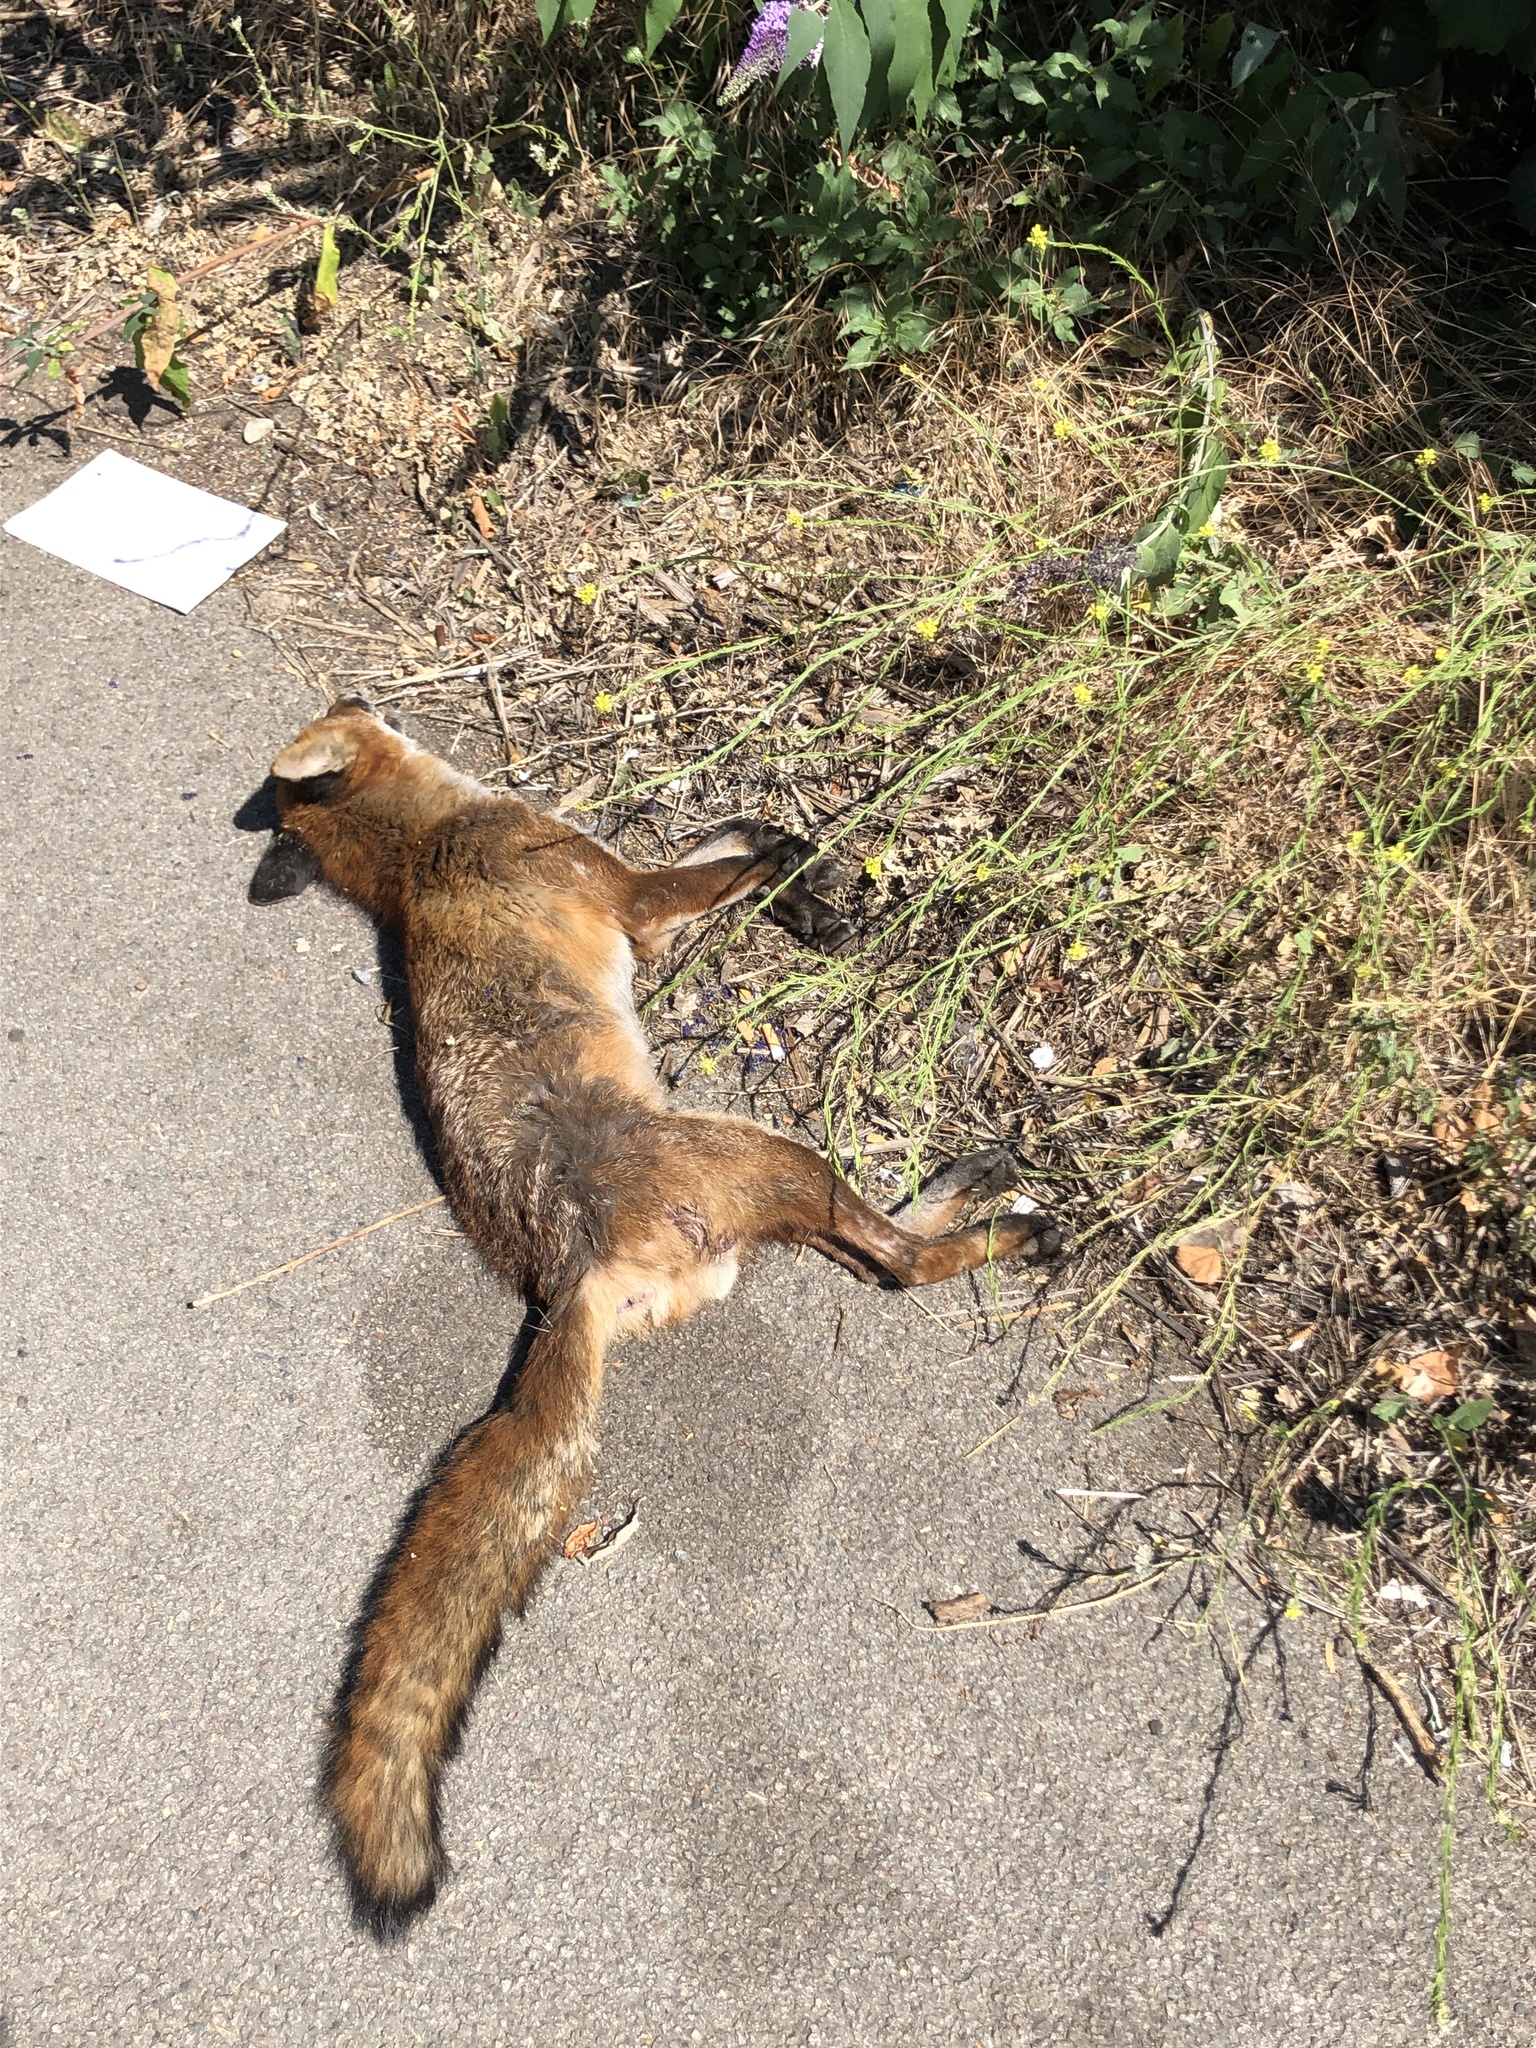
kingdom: Animalia
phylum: Chordata
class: Mammalia
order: Carnivora
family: Canidae
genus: Vulpes
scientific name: Vulpes vulpes
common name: Red fox
